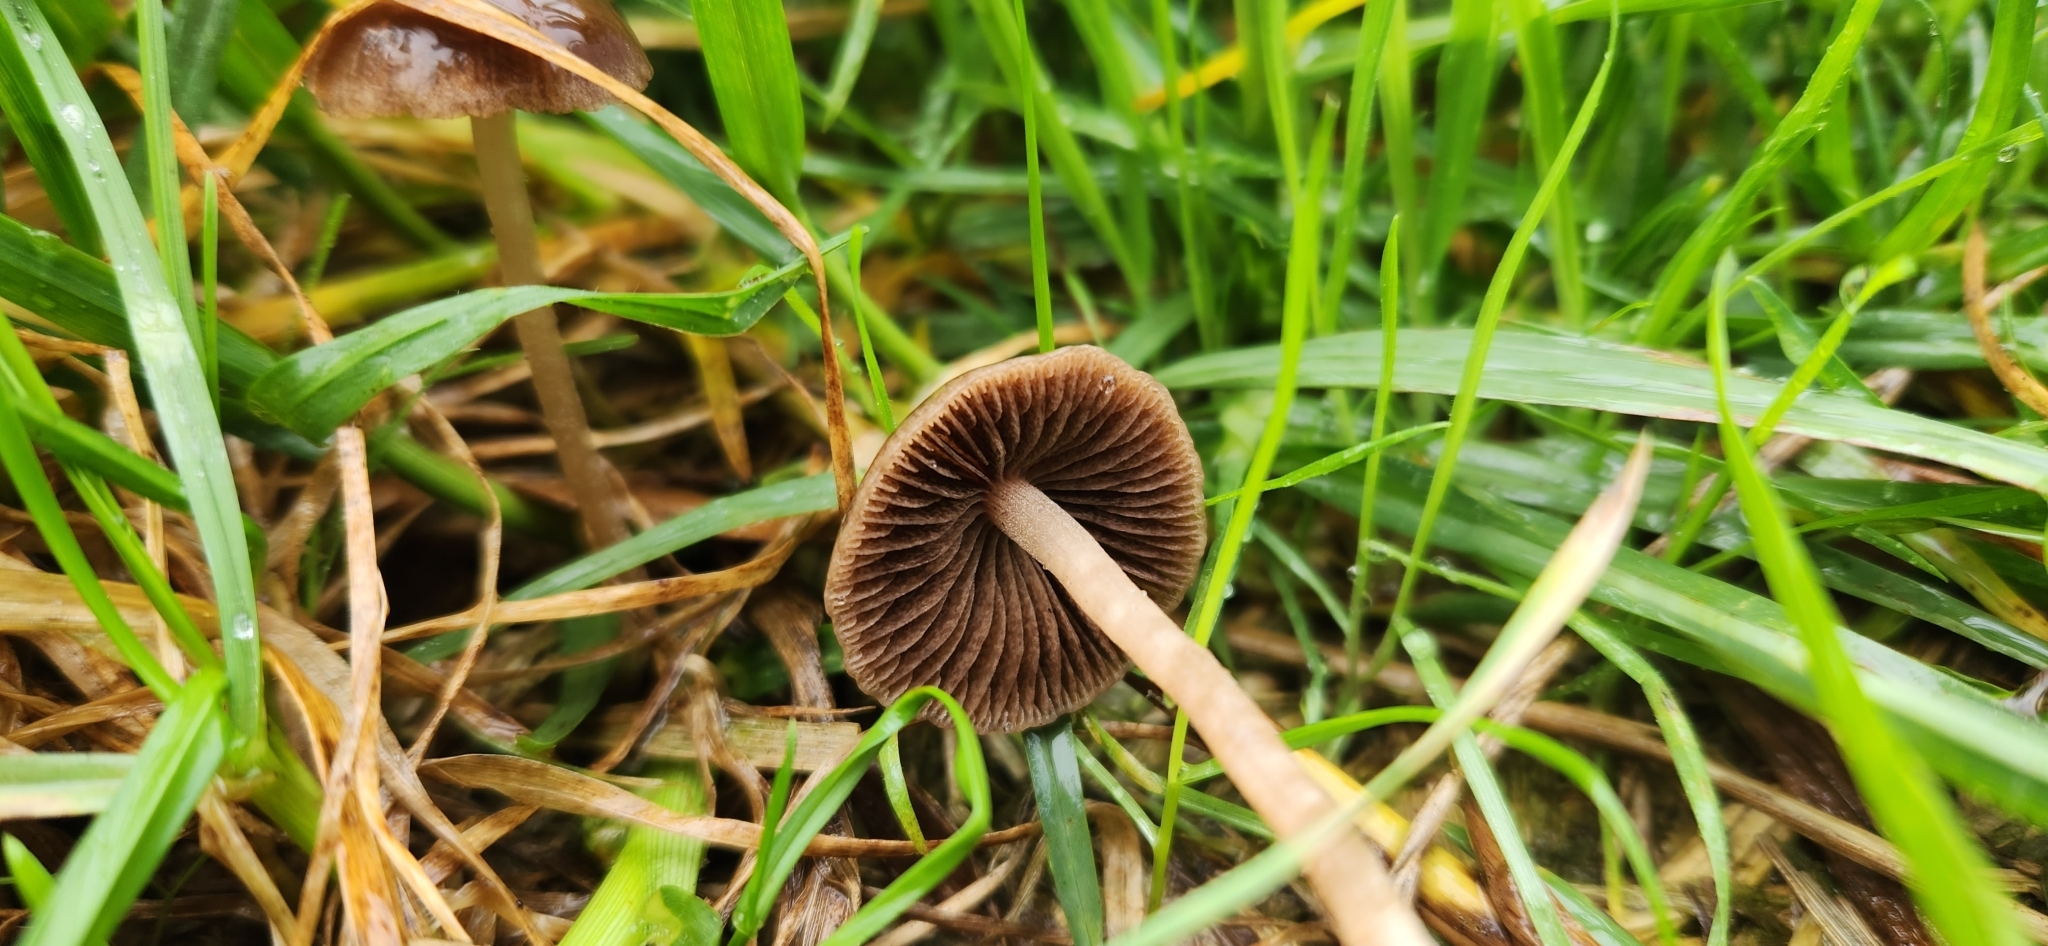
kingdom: Fungi
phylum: Basidiomycota
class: Agaricomycetes
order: Agaricales
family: Bolbitiaceae
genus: Panaeolina
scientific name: Panaeolina foenisecii
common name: Brown hay cap
